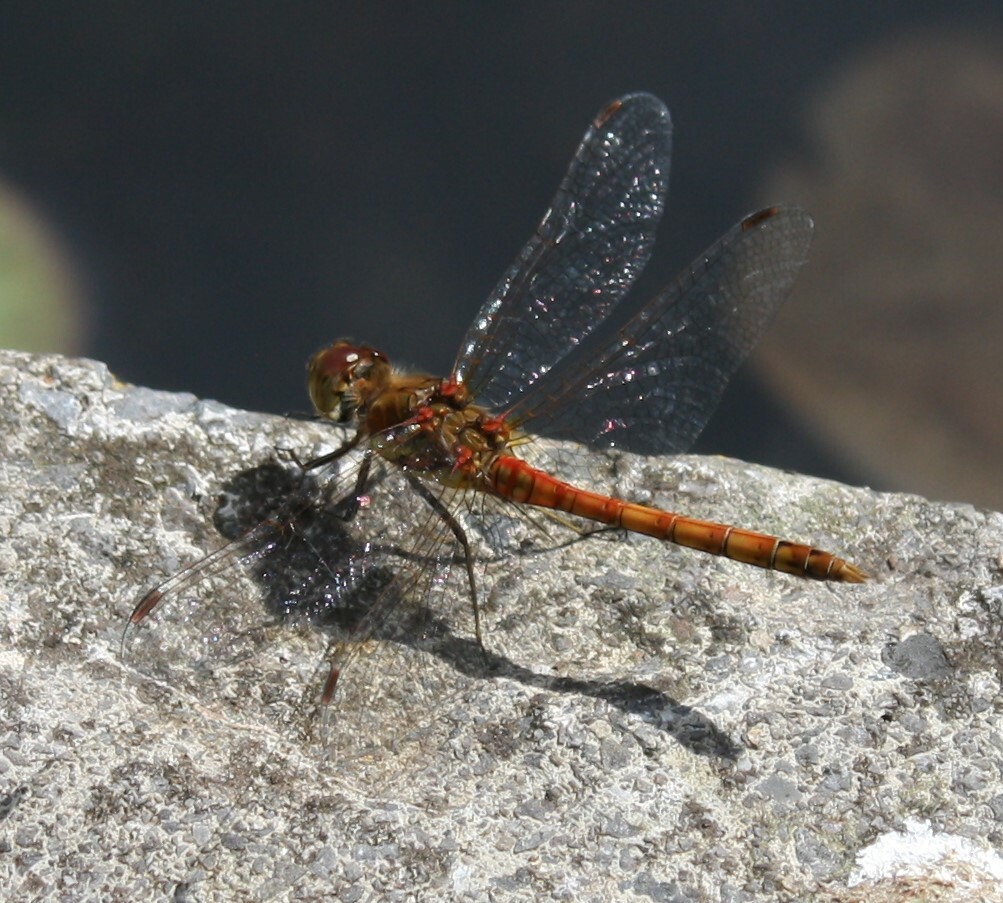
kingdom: Animalia
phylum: Arthropoda
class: Insecta
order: Odonata
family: Libellulidae
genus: Sympetrum
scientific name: Sympetrum striolatum
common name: Common darter
